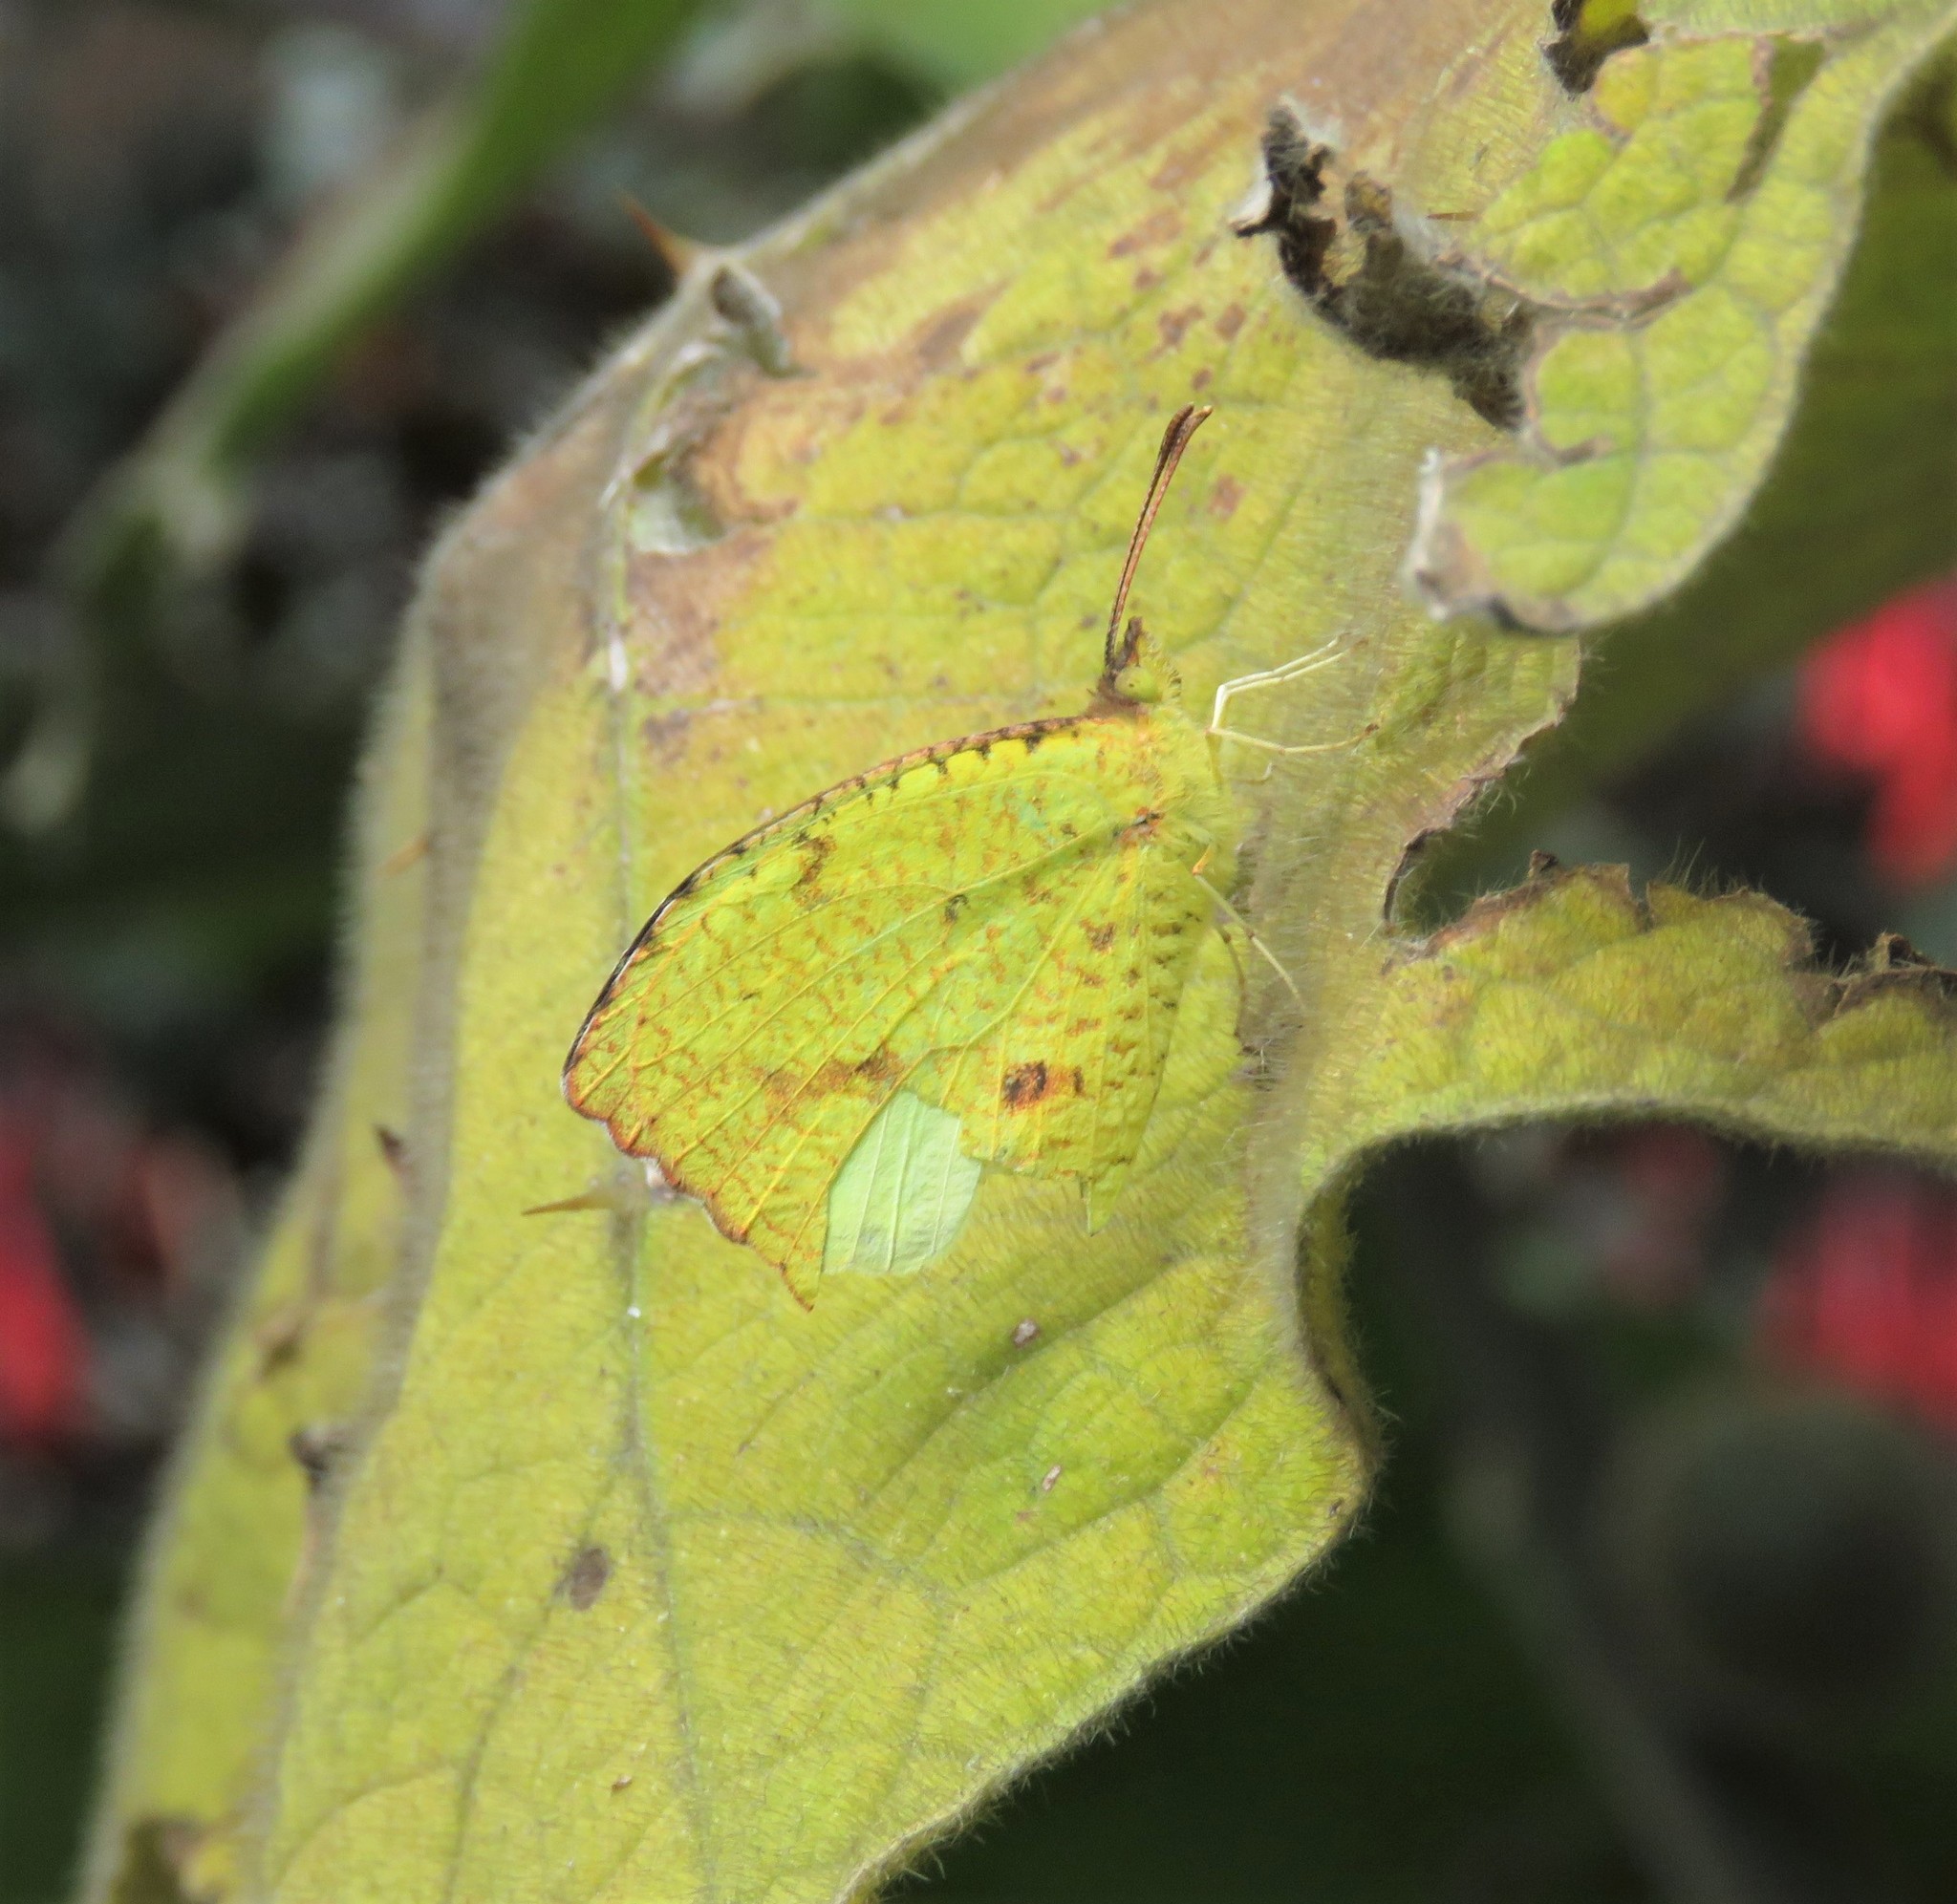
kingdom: Animalia
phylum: Arthropoda
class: Insecta
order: Lepidoptera
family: Pieridae
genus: Abaeis
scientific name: Abaeis salome
